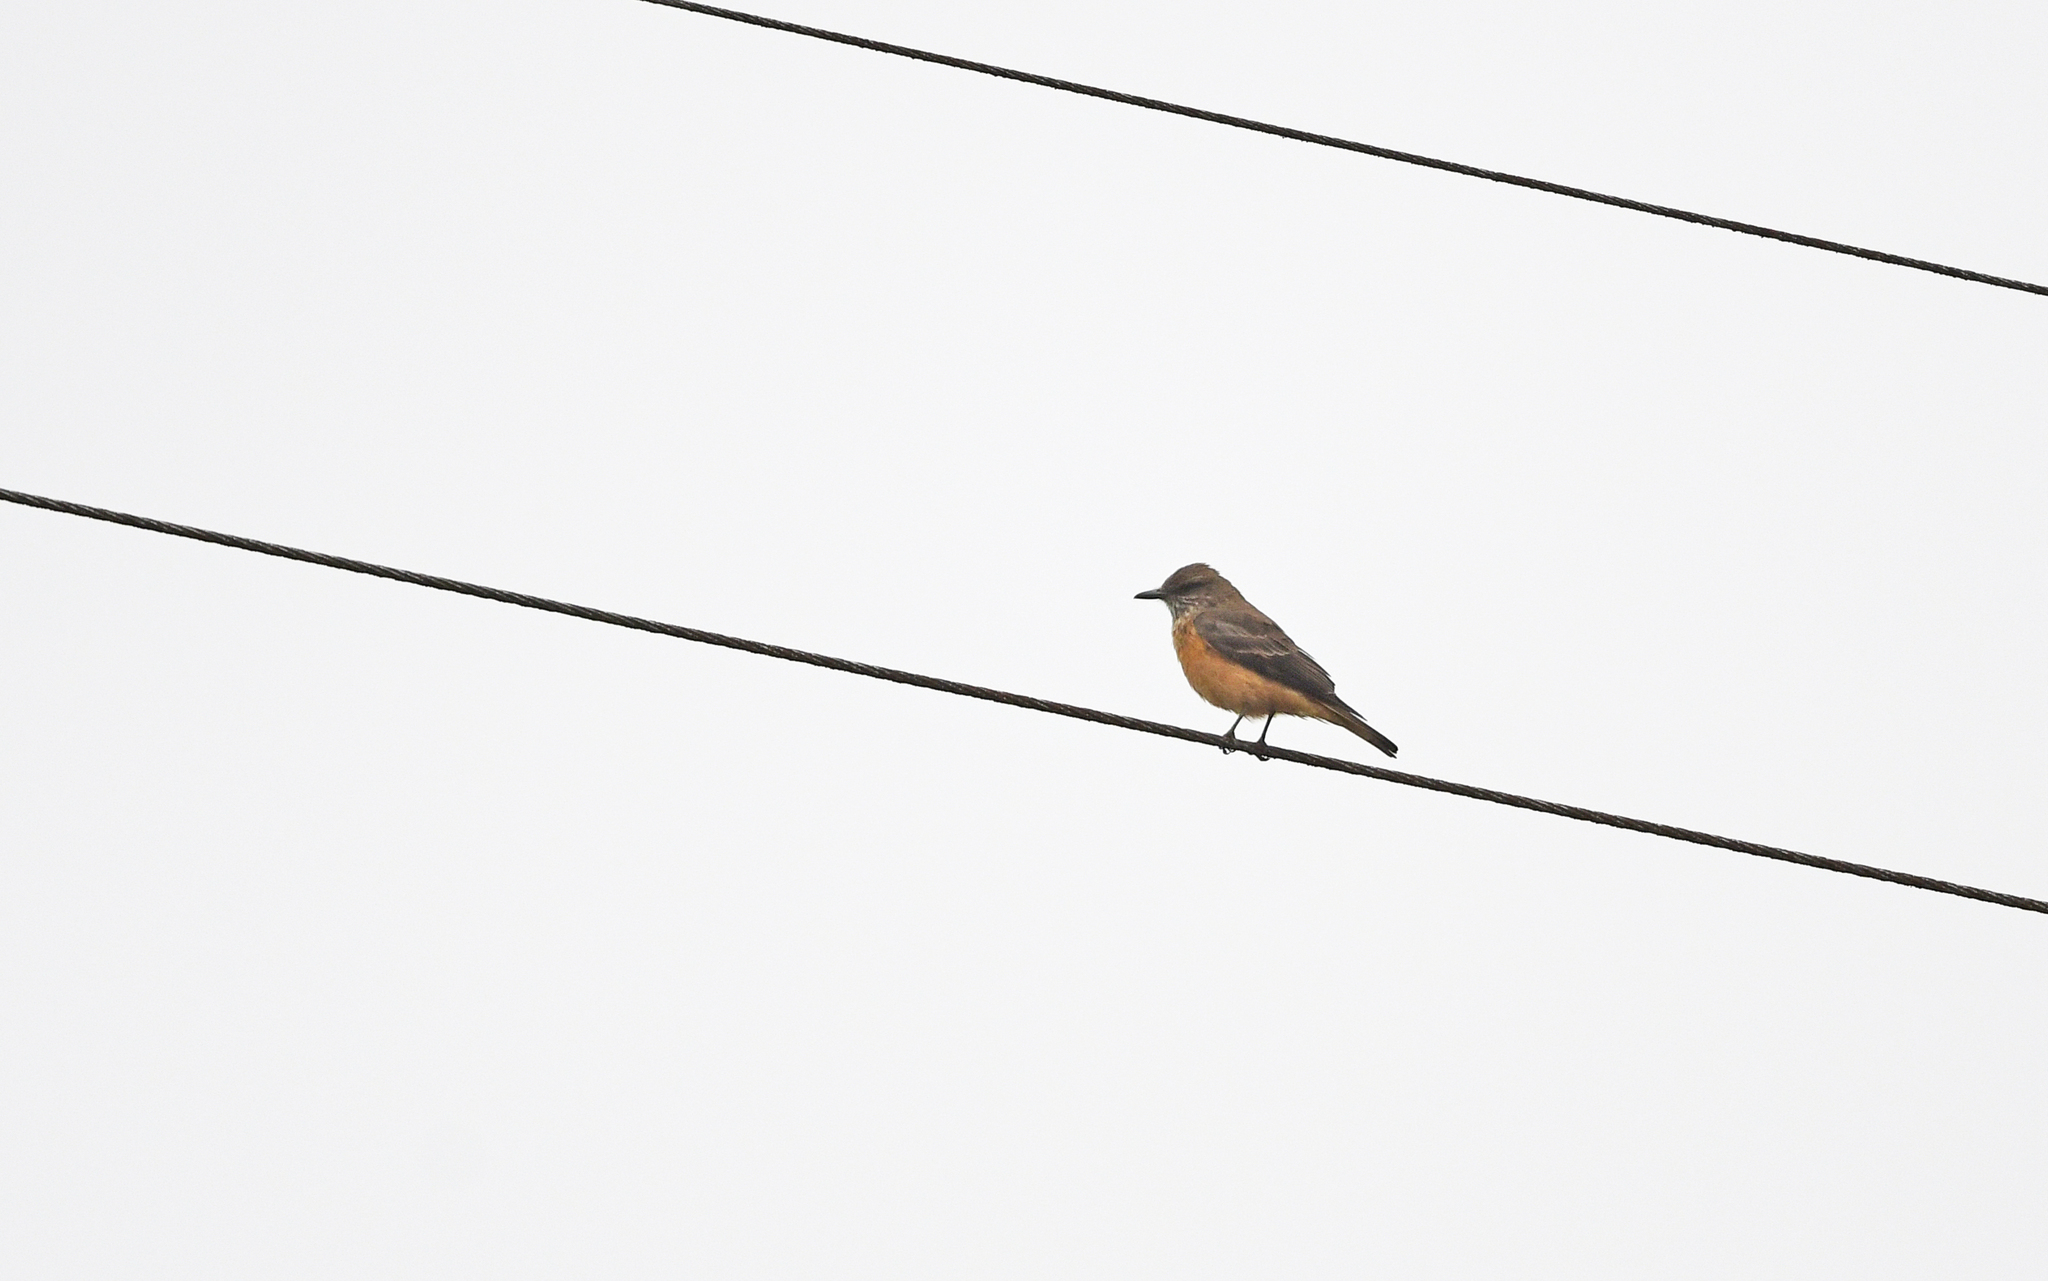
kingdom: Animalia
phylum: Chordata
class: Aves
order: Passeriformes
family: Tyrannidae
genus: Myiotheretes
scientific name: Myiotheretes striaticollis
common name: Streak-throated bush tyrant
